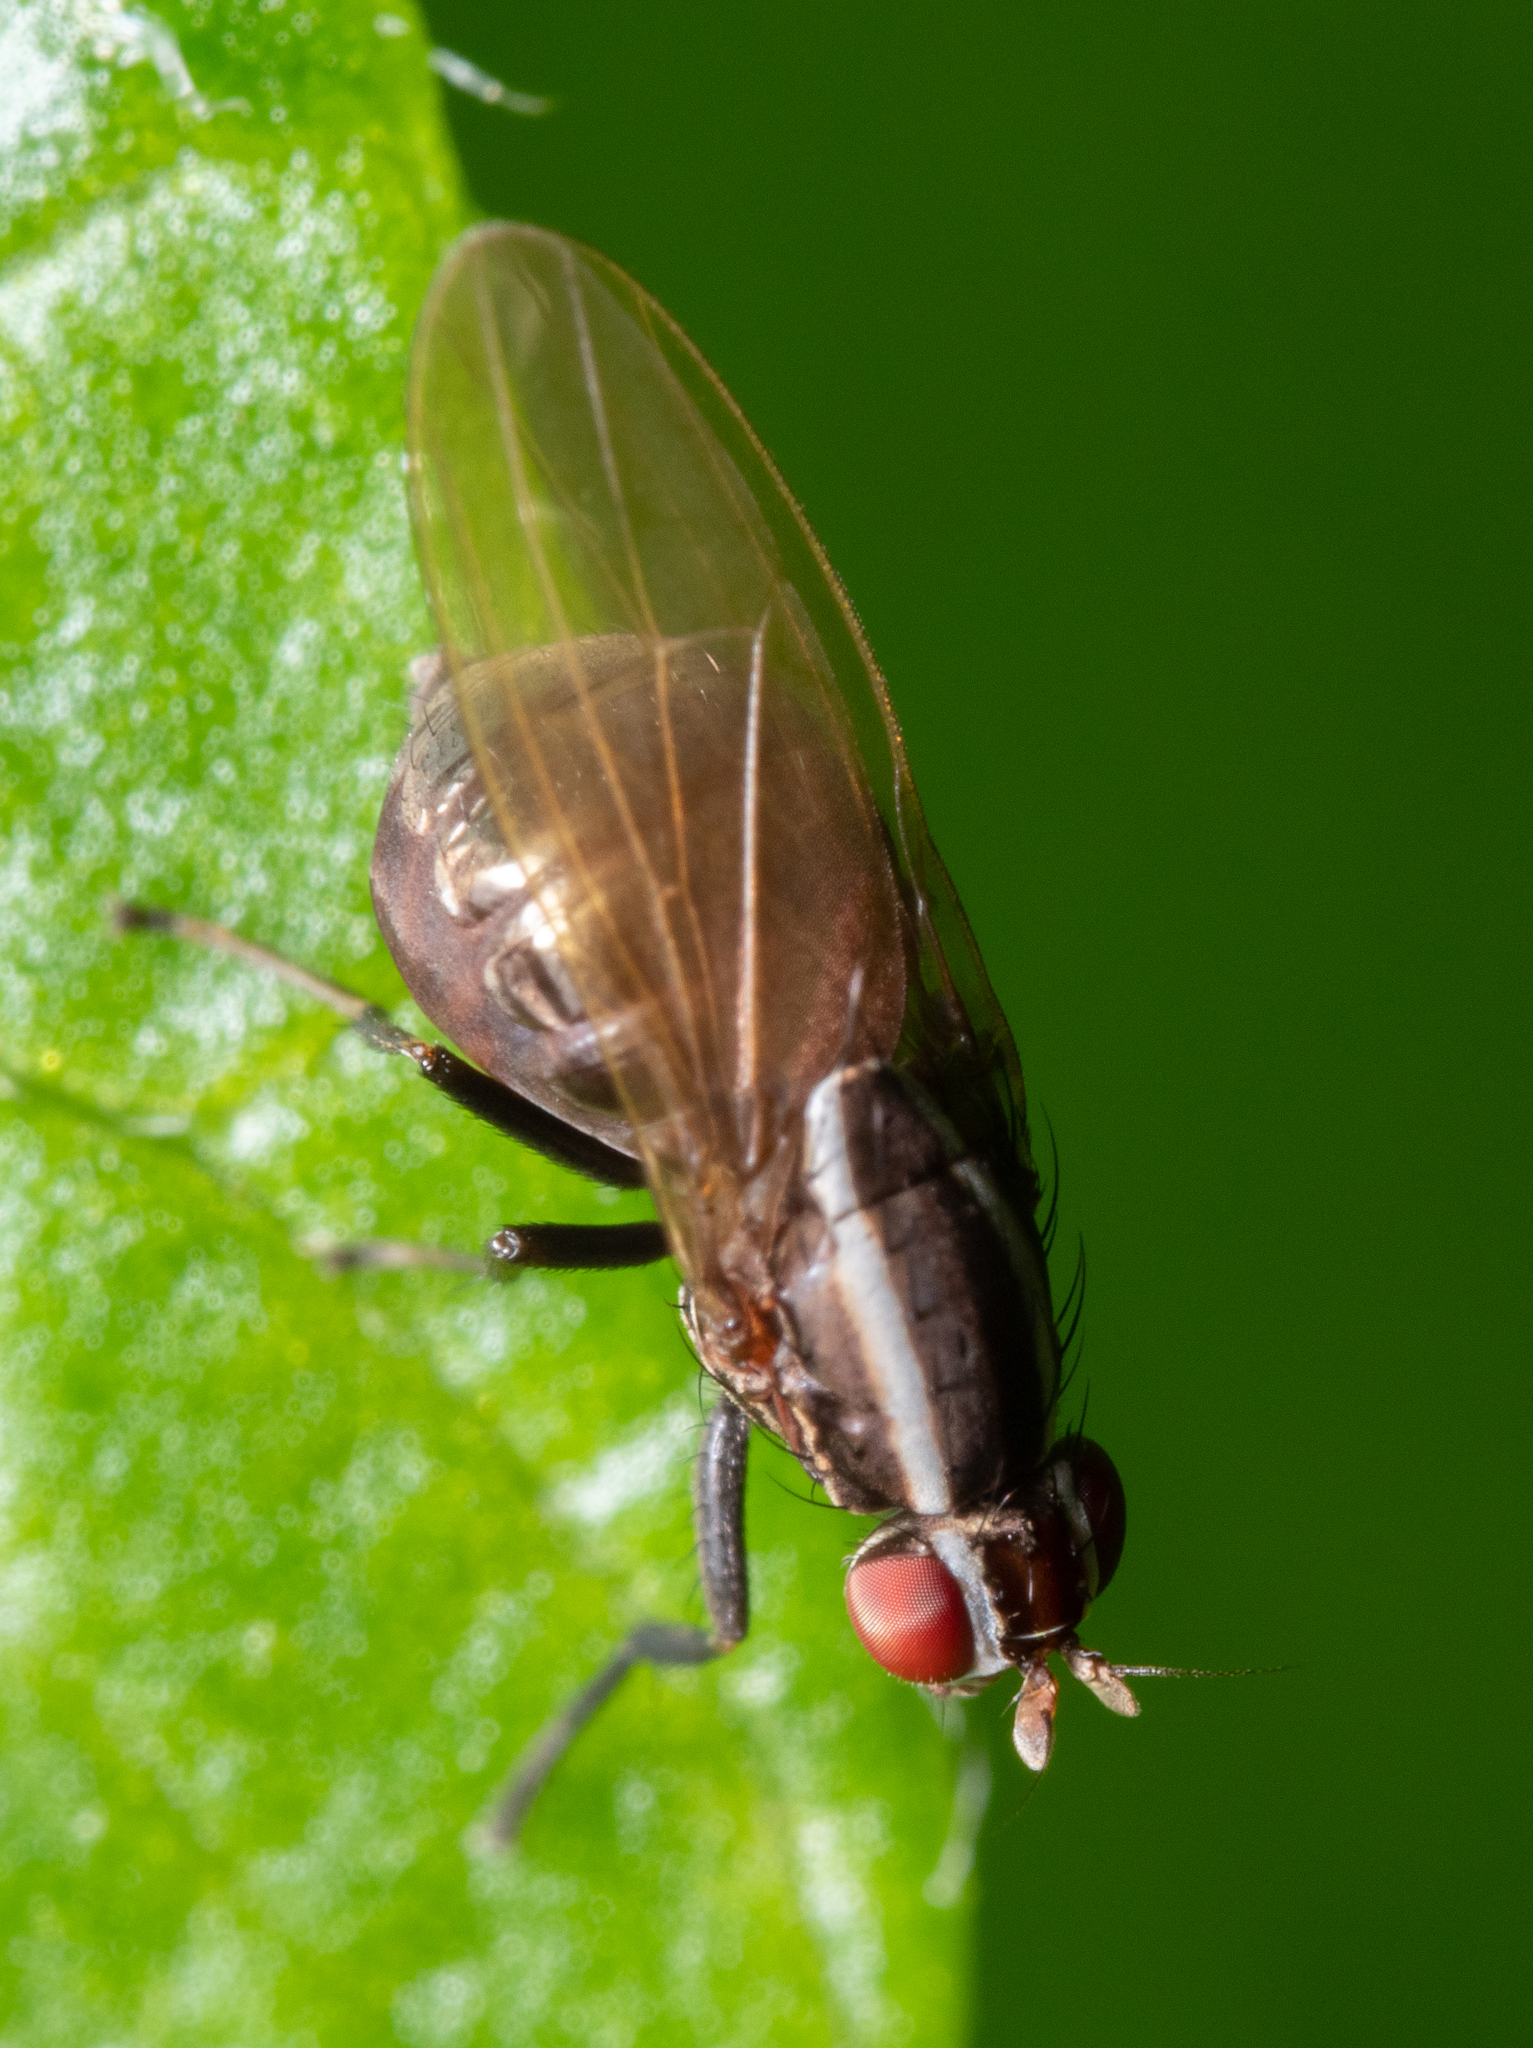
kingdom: Animalia
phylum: Arthropoda
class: Insecta
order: Diptera
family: Lauxaniidae
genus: Poecilohetaerus
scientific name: Poecilohetaerus schineri
